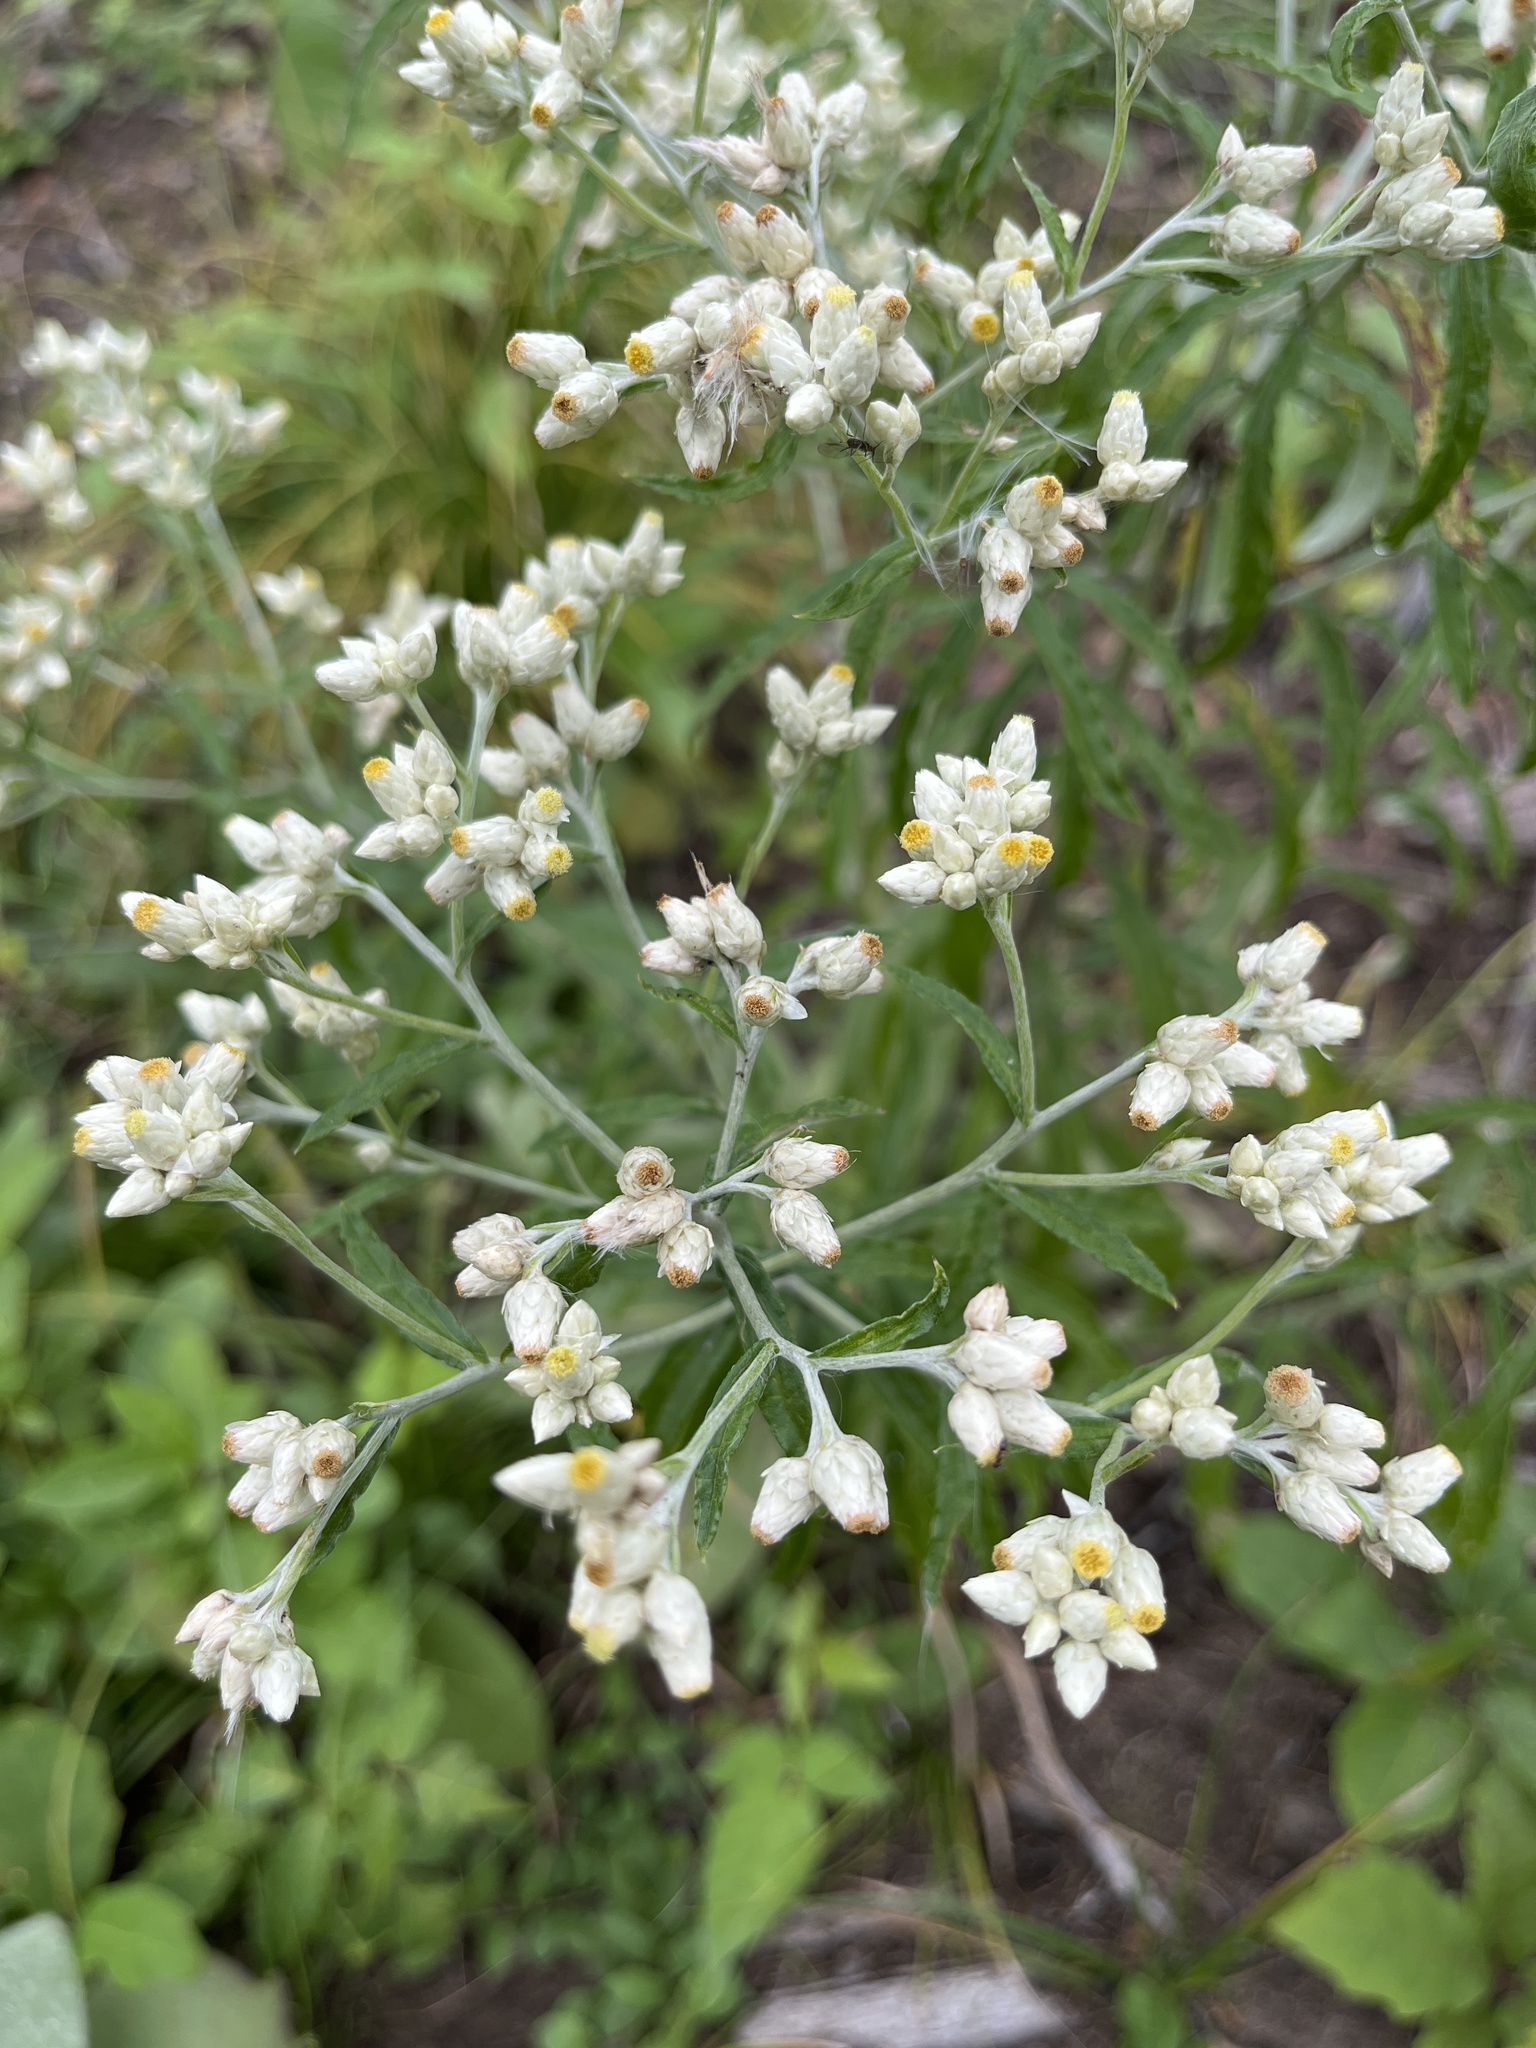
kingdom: Plantae
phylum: Tracheophyta
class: Magnoliopsida
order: Asterales
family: Asteraceae
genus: Pseudognaphalium
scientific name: Pseudognaphalium obtusifolium
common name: Eastern rabbit-tobacco
